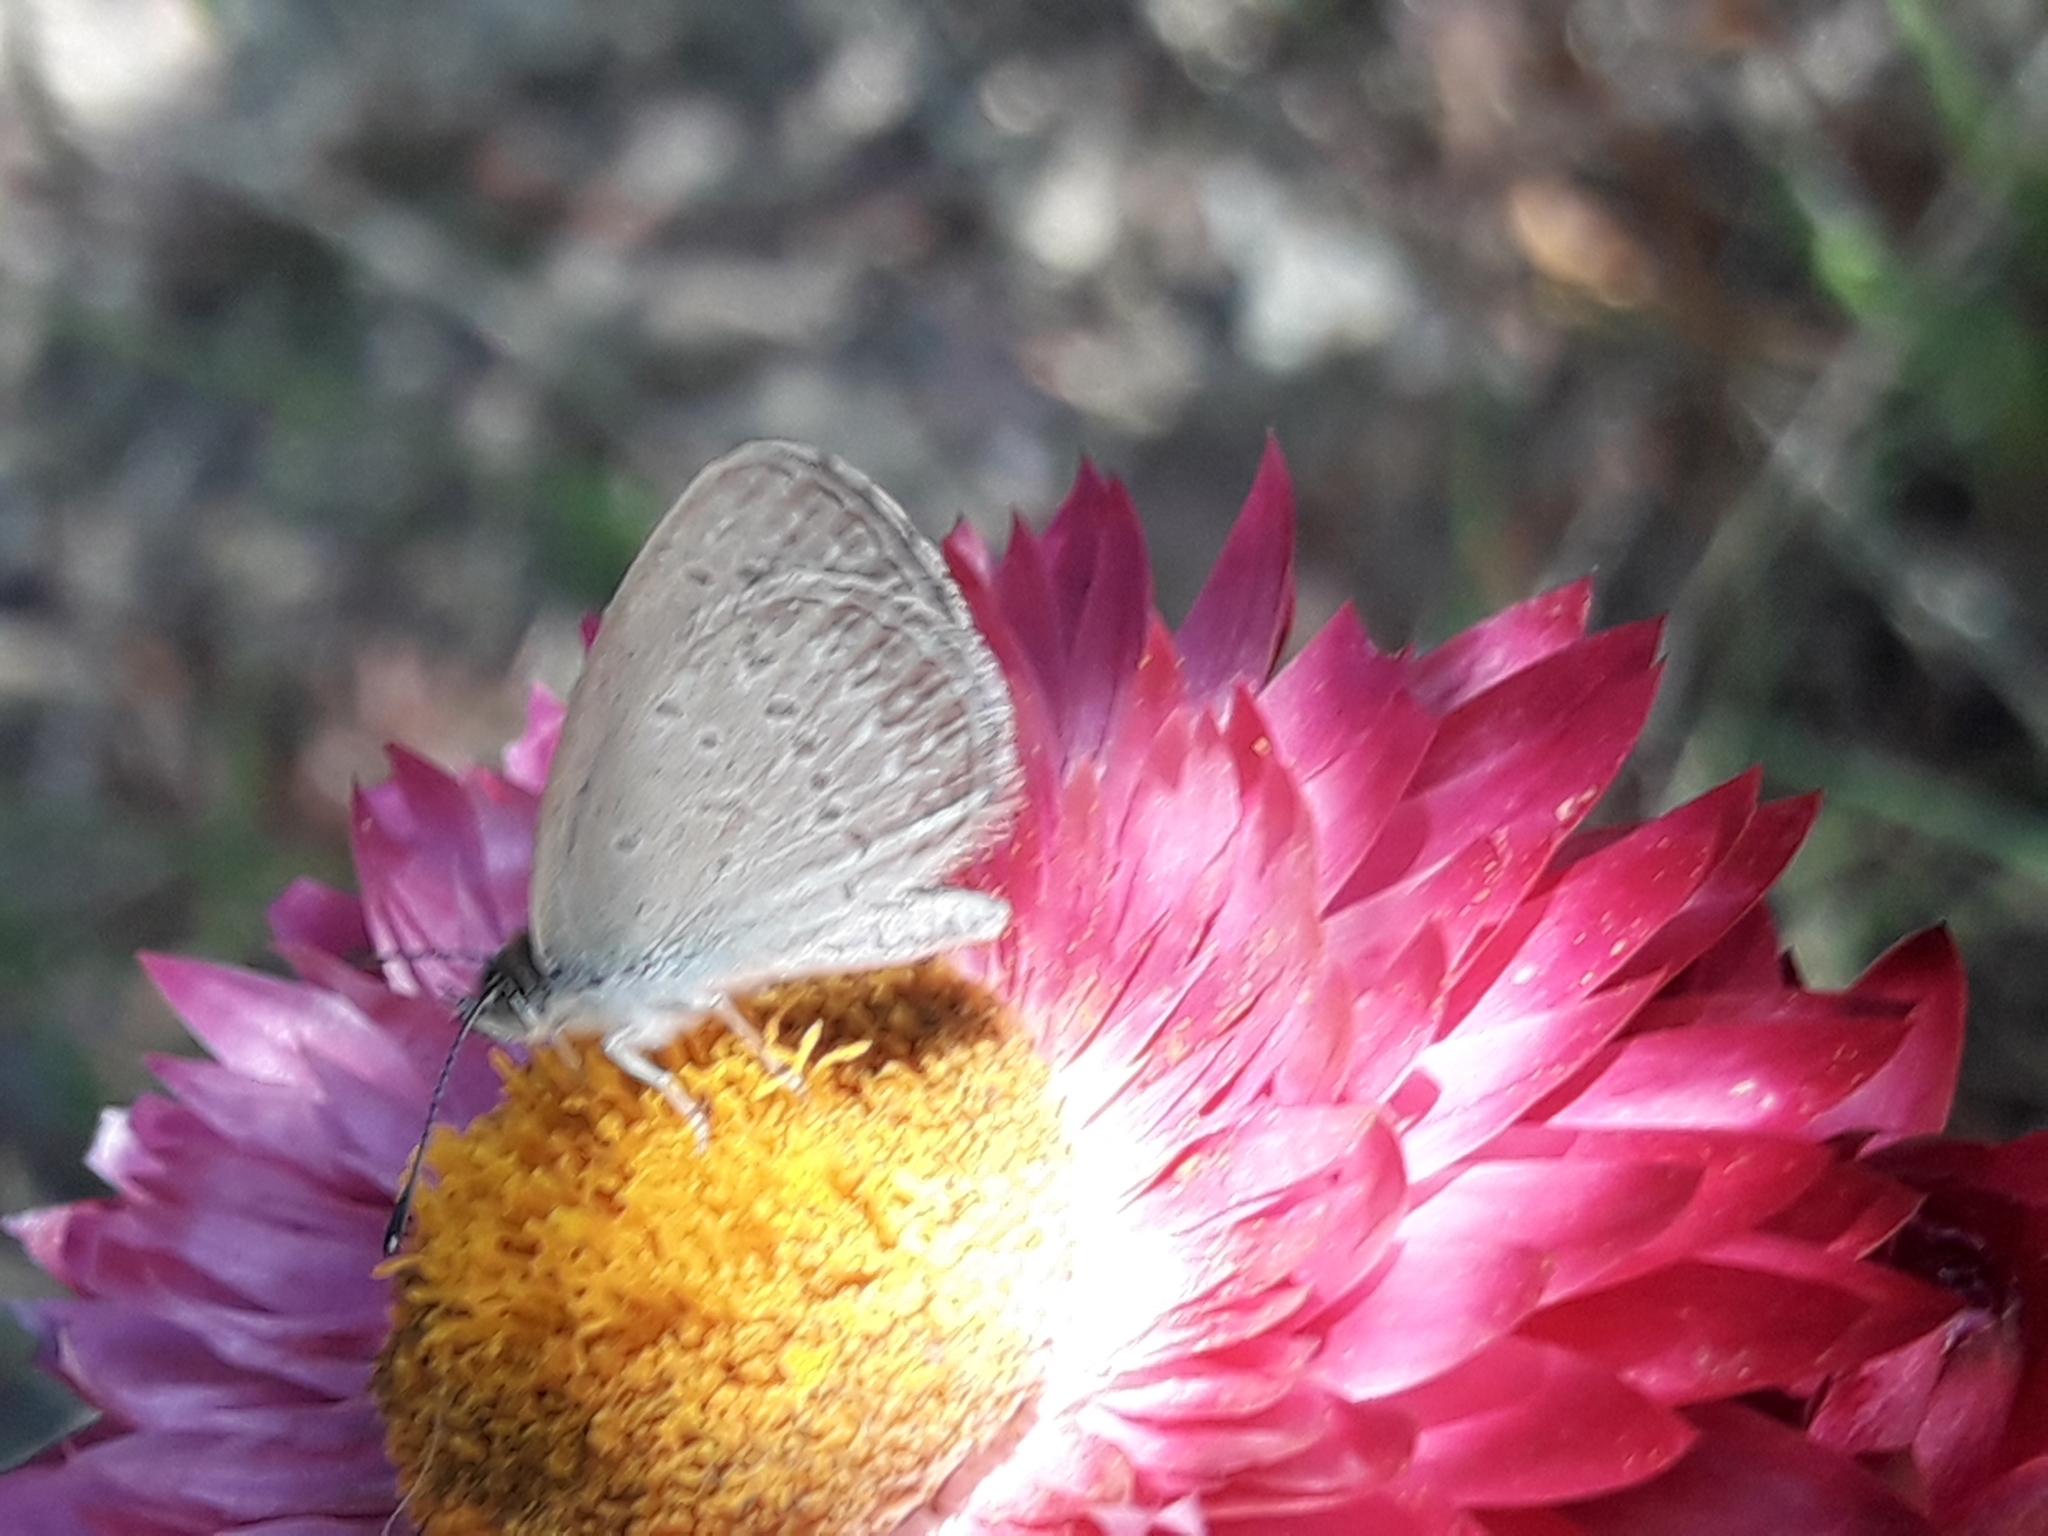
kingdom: Animalia
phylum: Arthropoda
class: Insecta
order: Lepidoptera
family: Lycaenidae
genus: Zizina
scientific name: Zizina labradus
